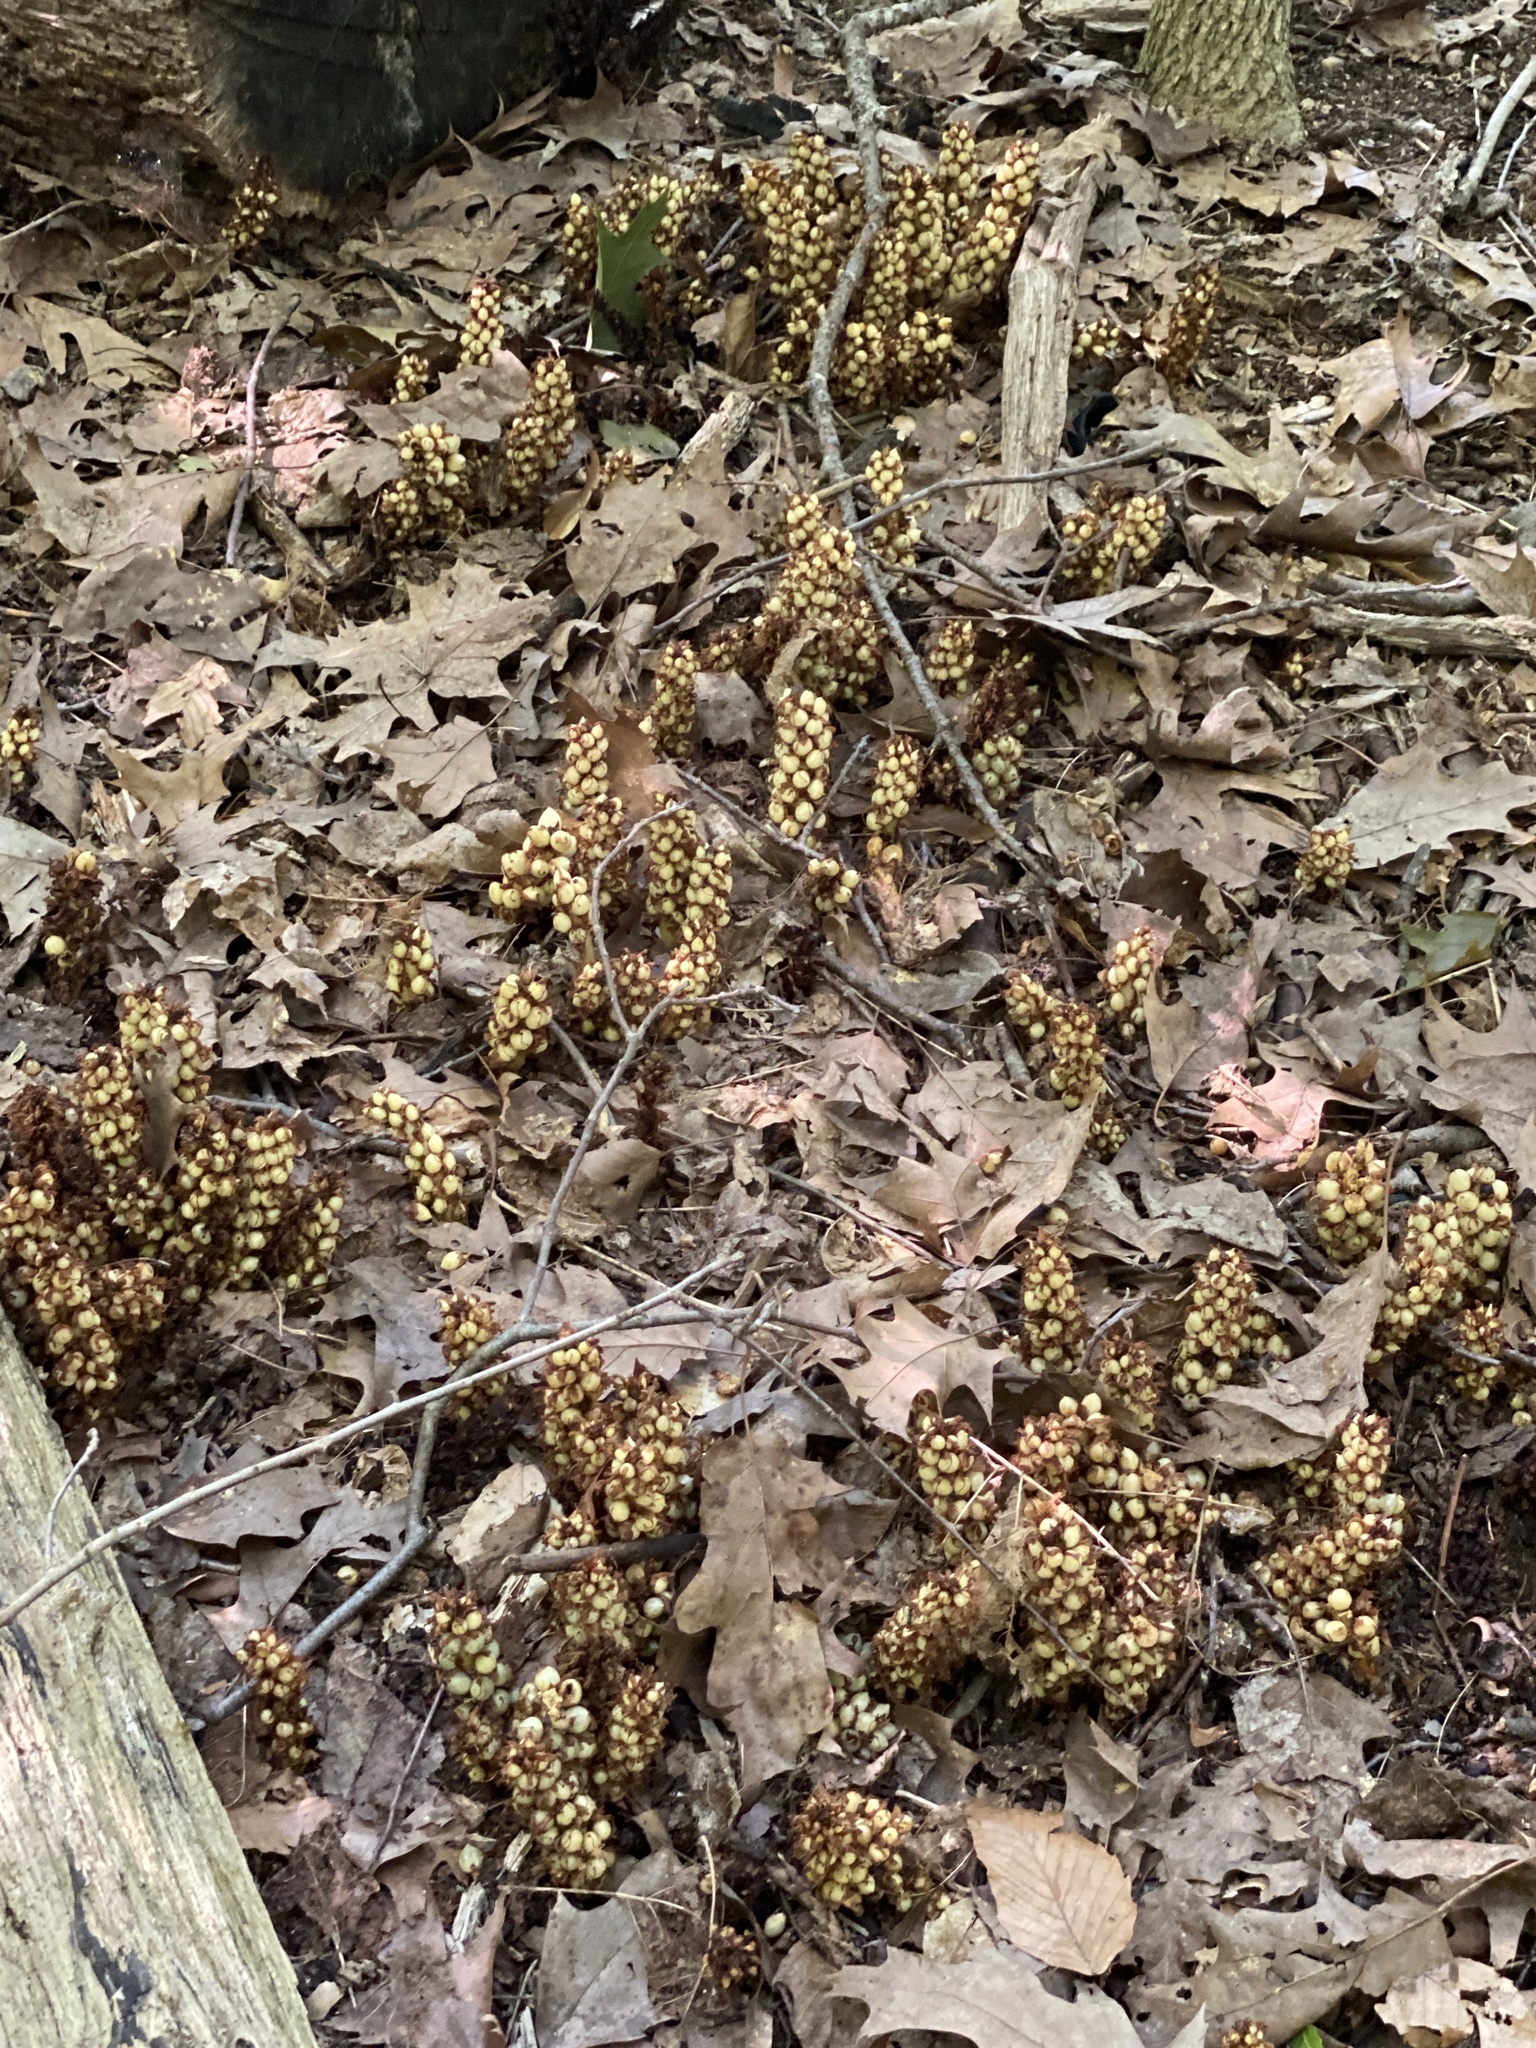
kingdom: Plantae
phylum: Tracheophyta
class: Magnoliopsida
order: Lamiales
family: Orobanchaceae
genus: Conopholis
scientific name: Conopholis americana
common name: American cancer-root
